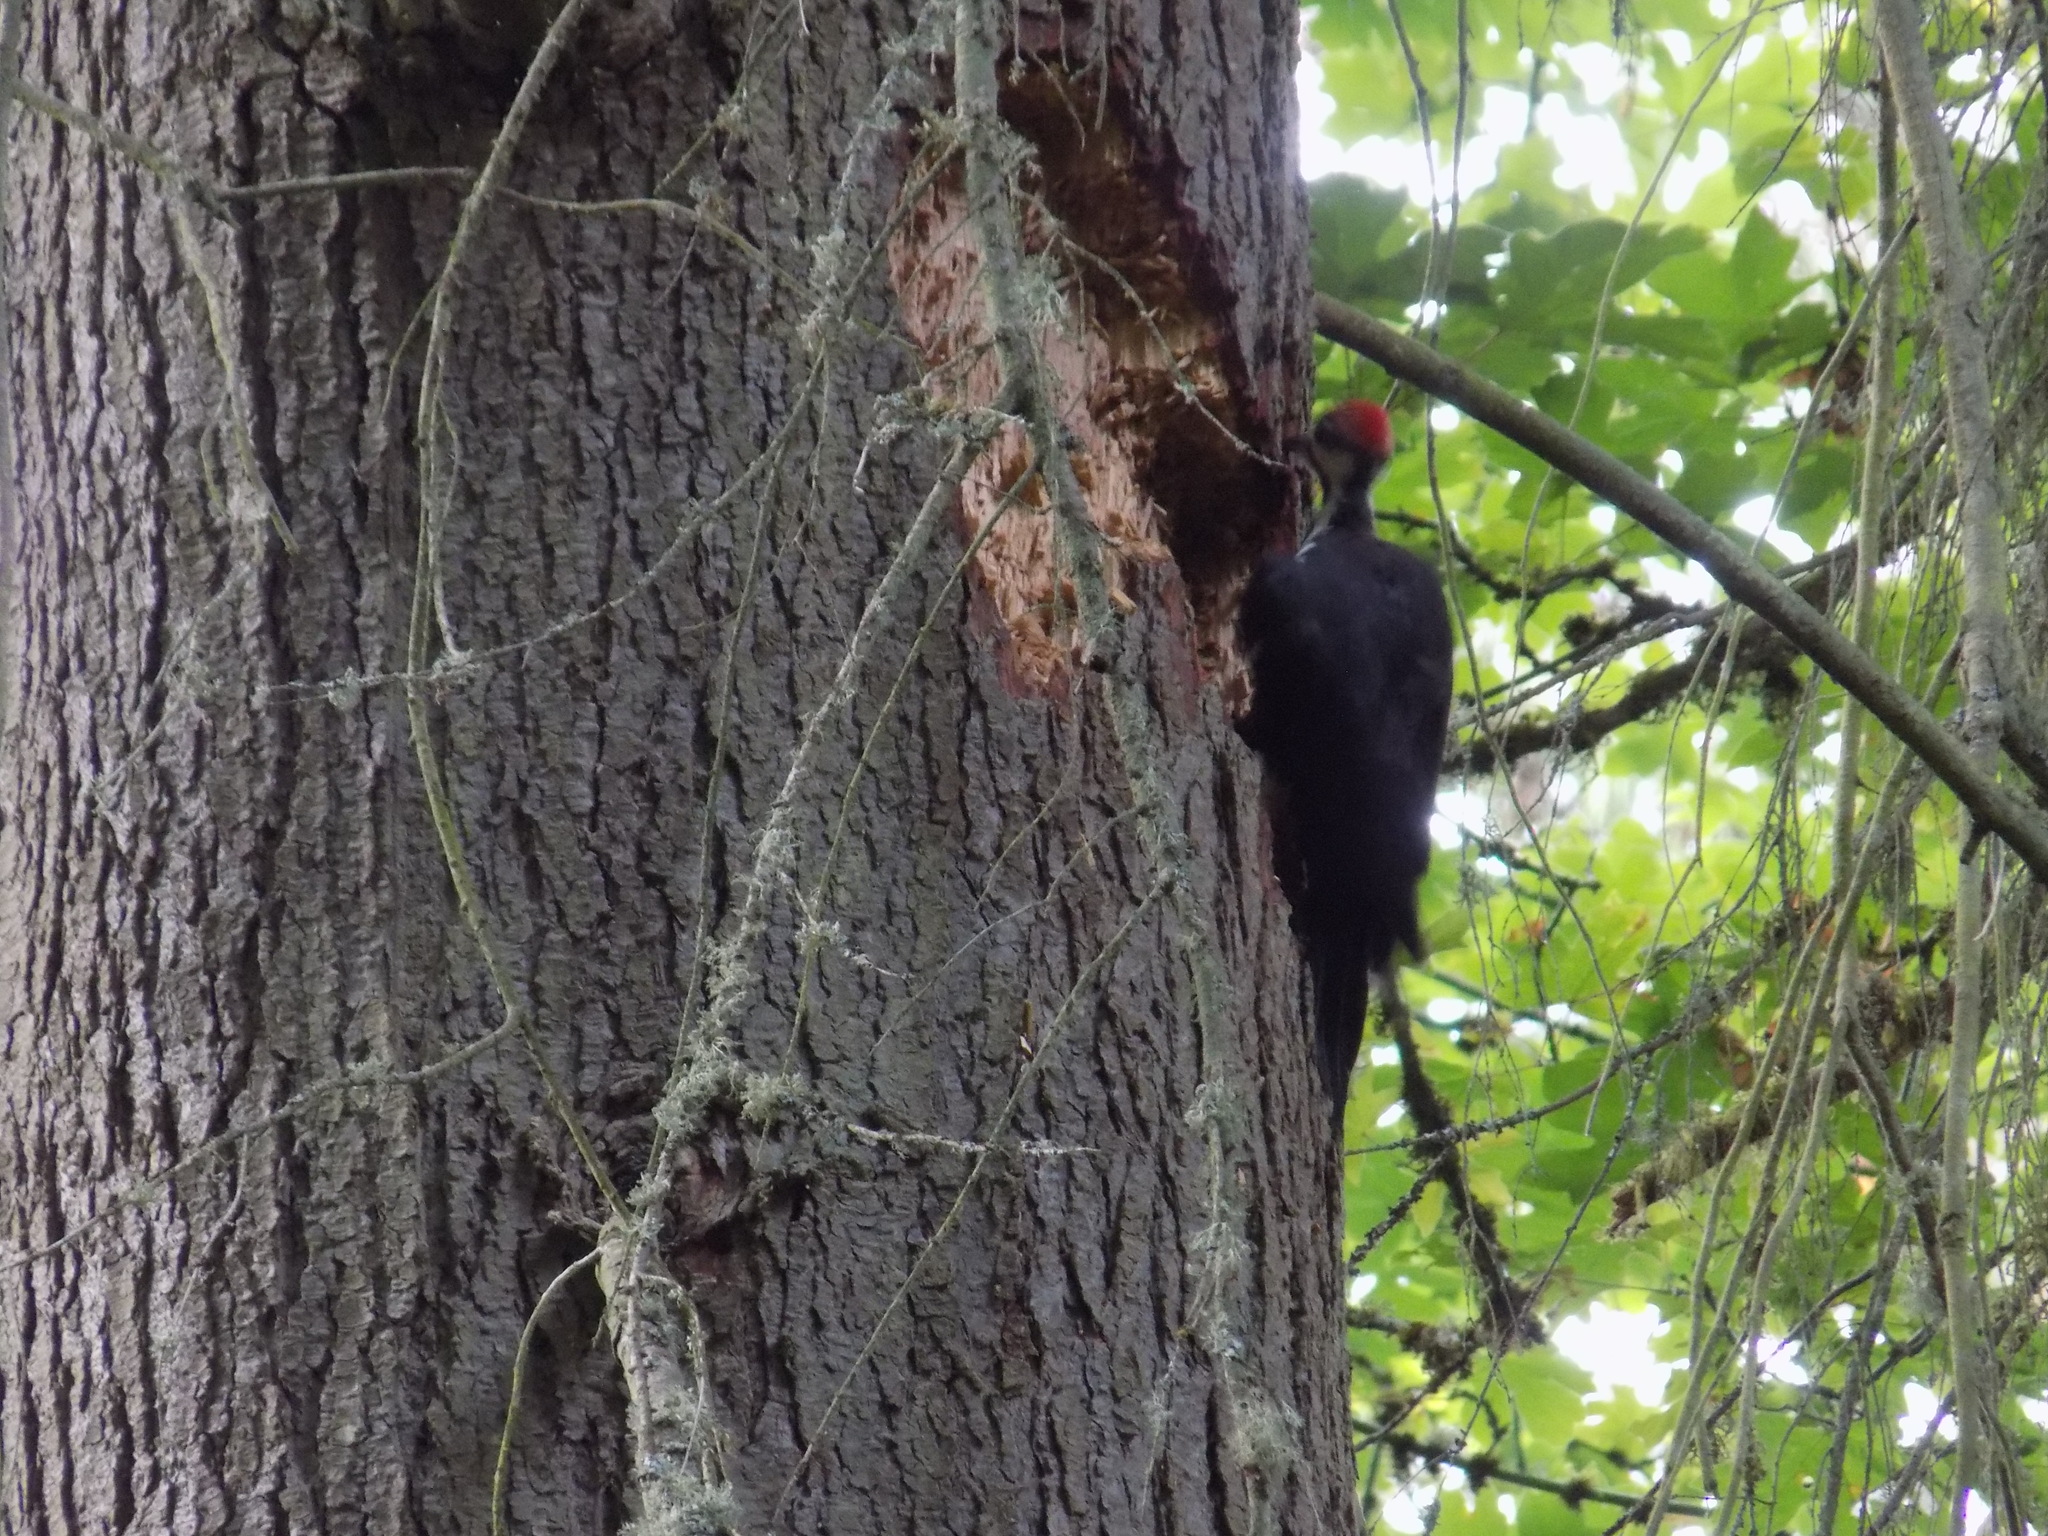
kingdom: Animalia
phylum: Chordata
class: Aves
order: Piciformes
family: Picidae
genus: Dryocopus
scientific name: Dryocopus pileatus
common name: Pileated woodpecker
